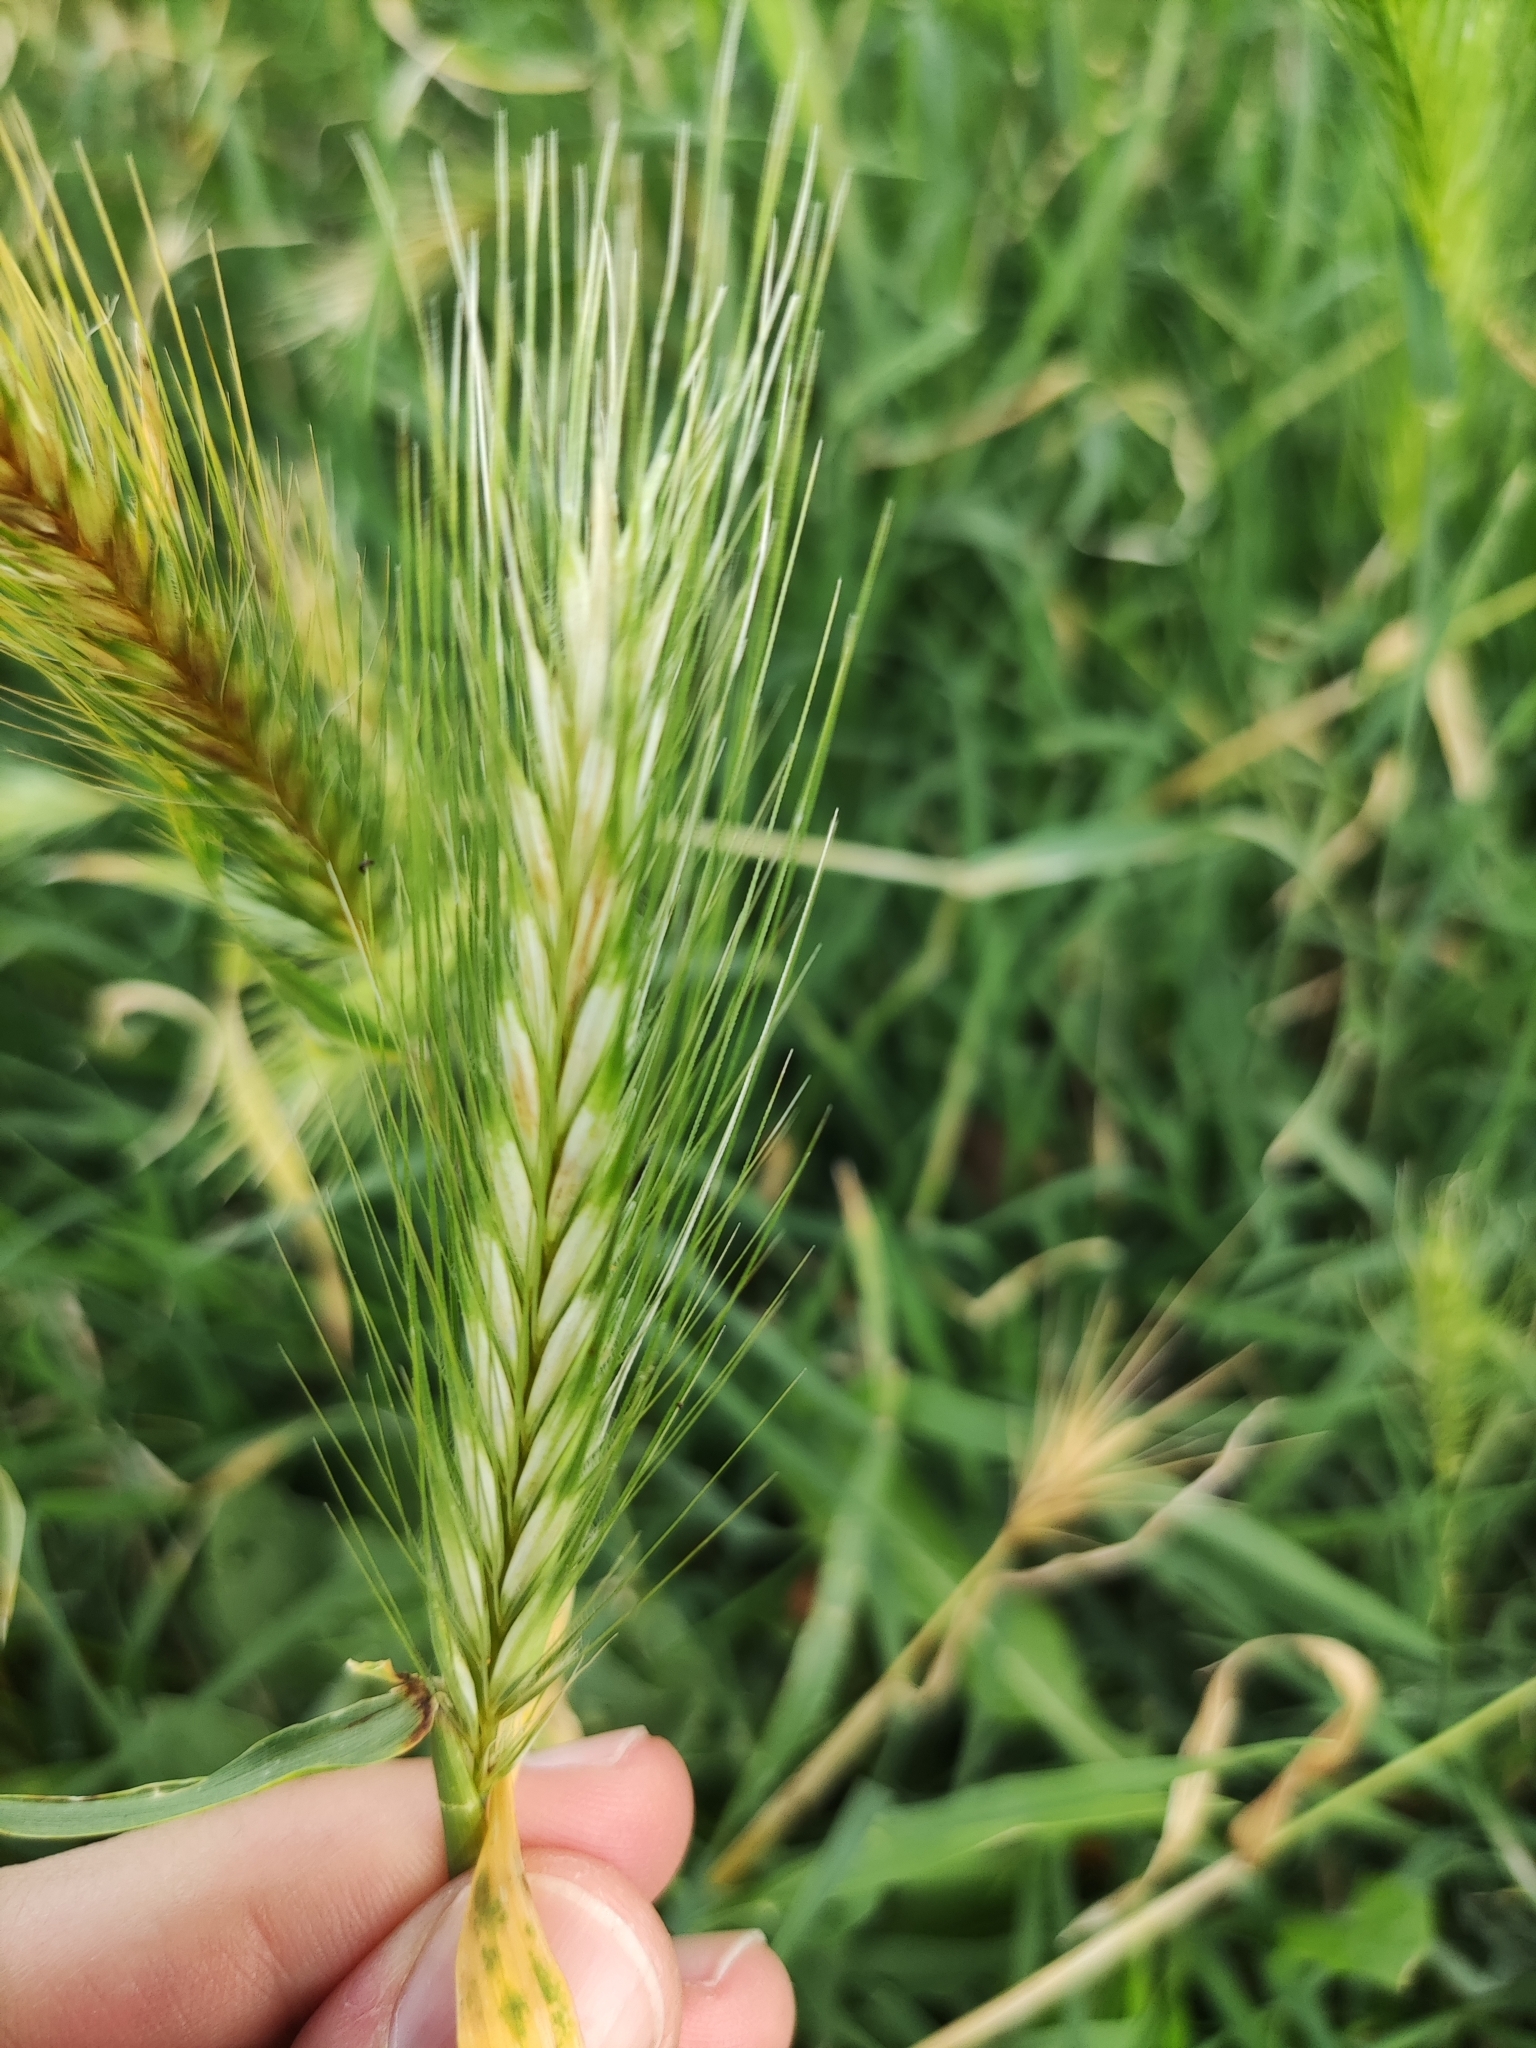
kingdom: Plantae
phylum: Tracheophyta
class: Liliopsida
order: Poales
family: Poaceae
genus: Hordeum
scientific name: Hordeum murinum
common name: Wall barley
